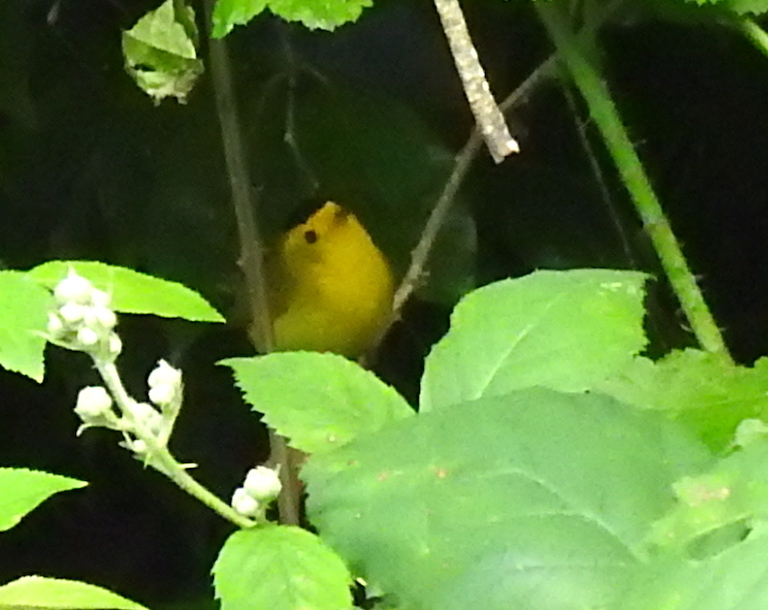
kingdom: Animalia
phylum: Chordata
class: Aves
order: Passeriformes
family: Parulidae
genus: Cardellina
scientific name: Cardellina pusilla
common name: Wilson's warbler
